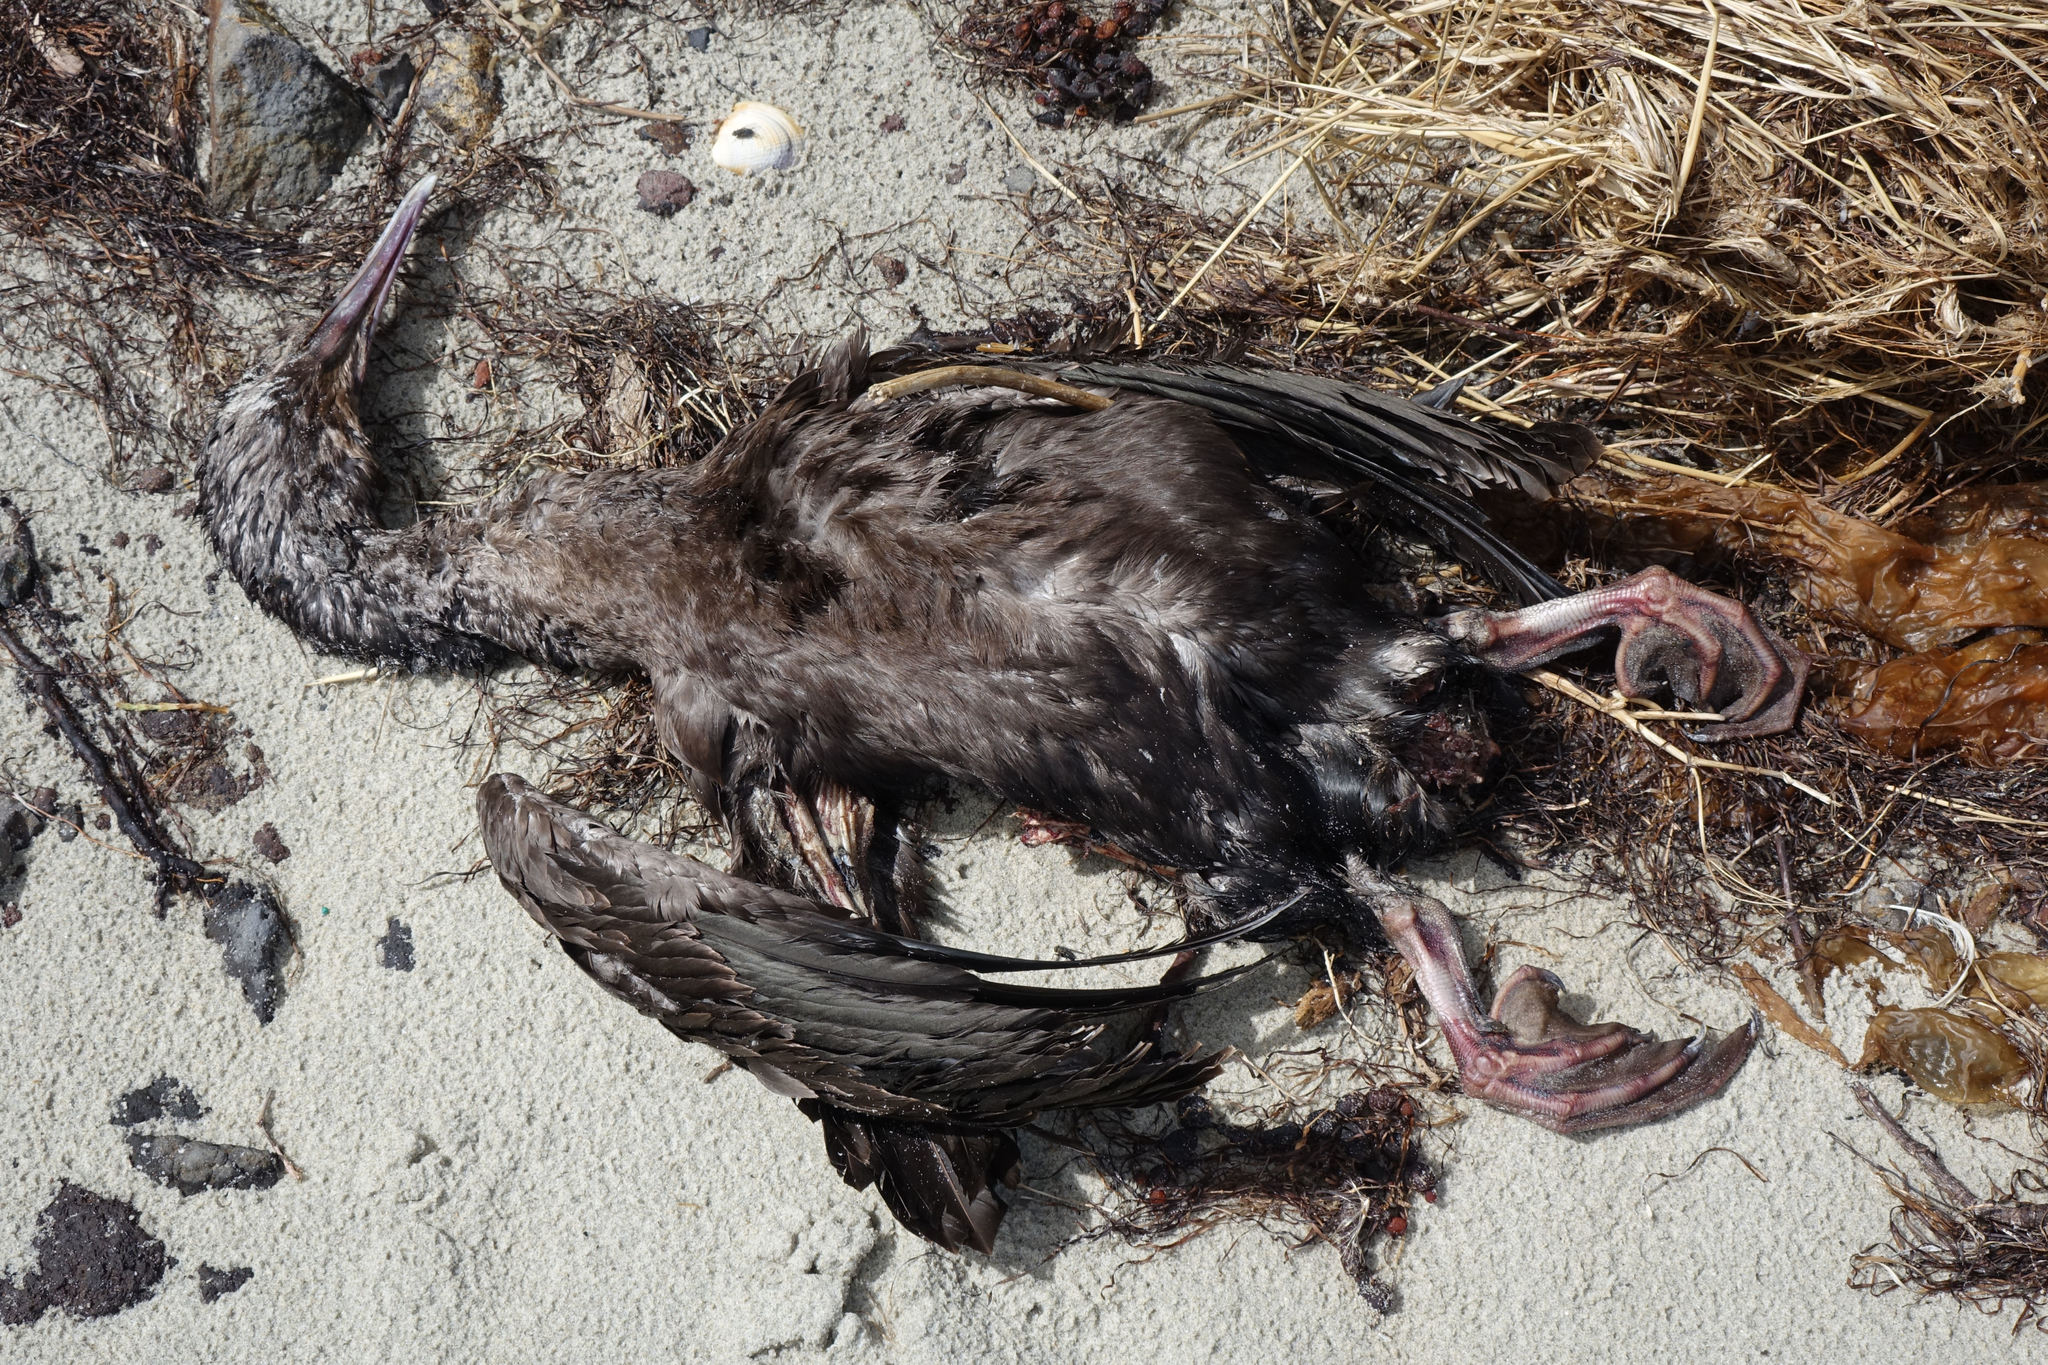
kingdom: Animalia
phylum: Chordata
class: Aves
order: Suliformes
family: Phalacrocoracidae
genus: Leucocarbo
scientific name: Leucocarbo chalconotus
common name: Stewart shag
